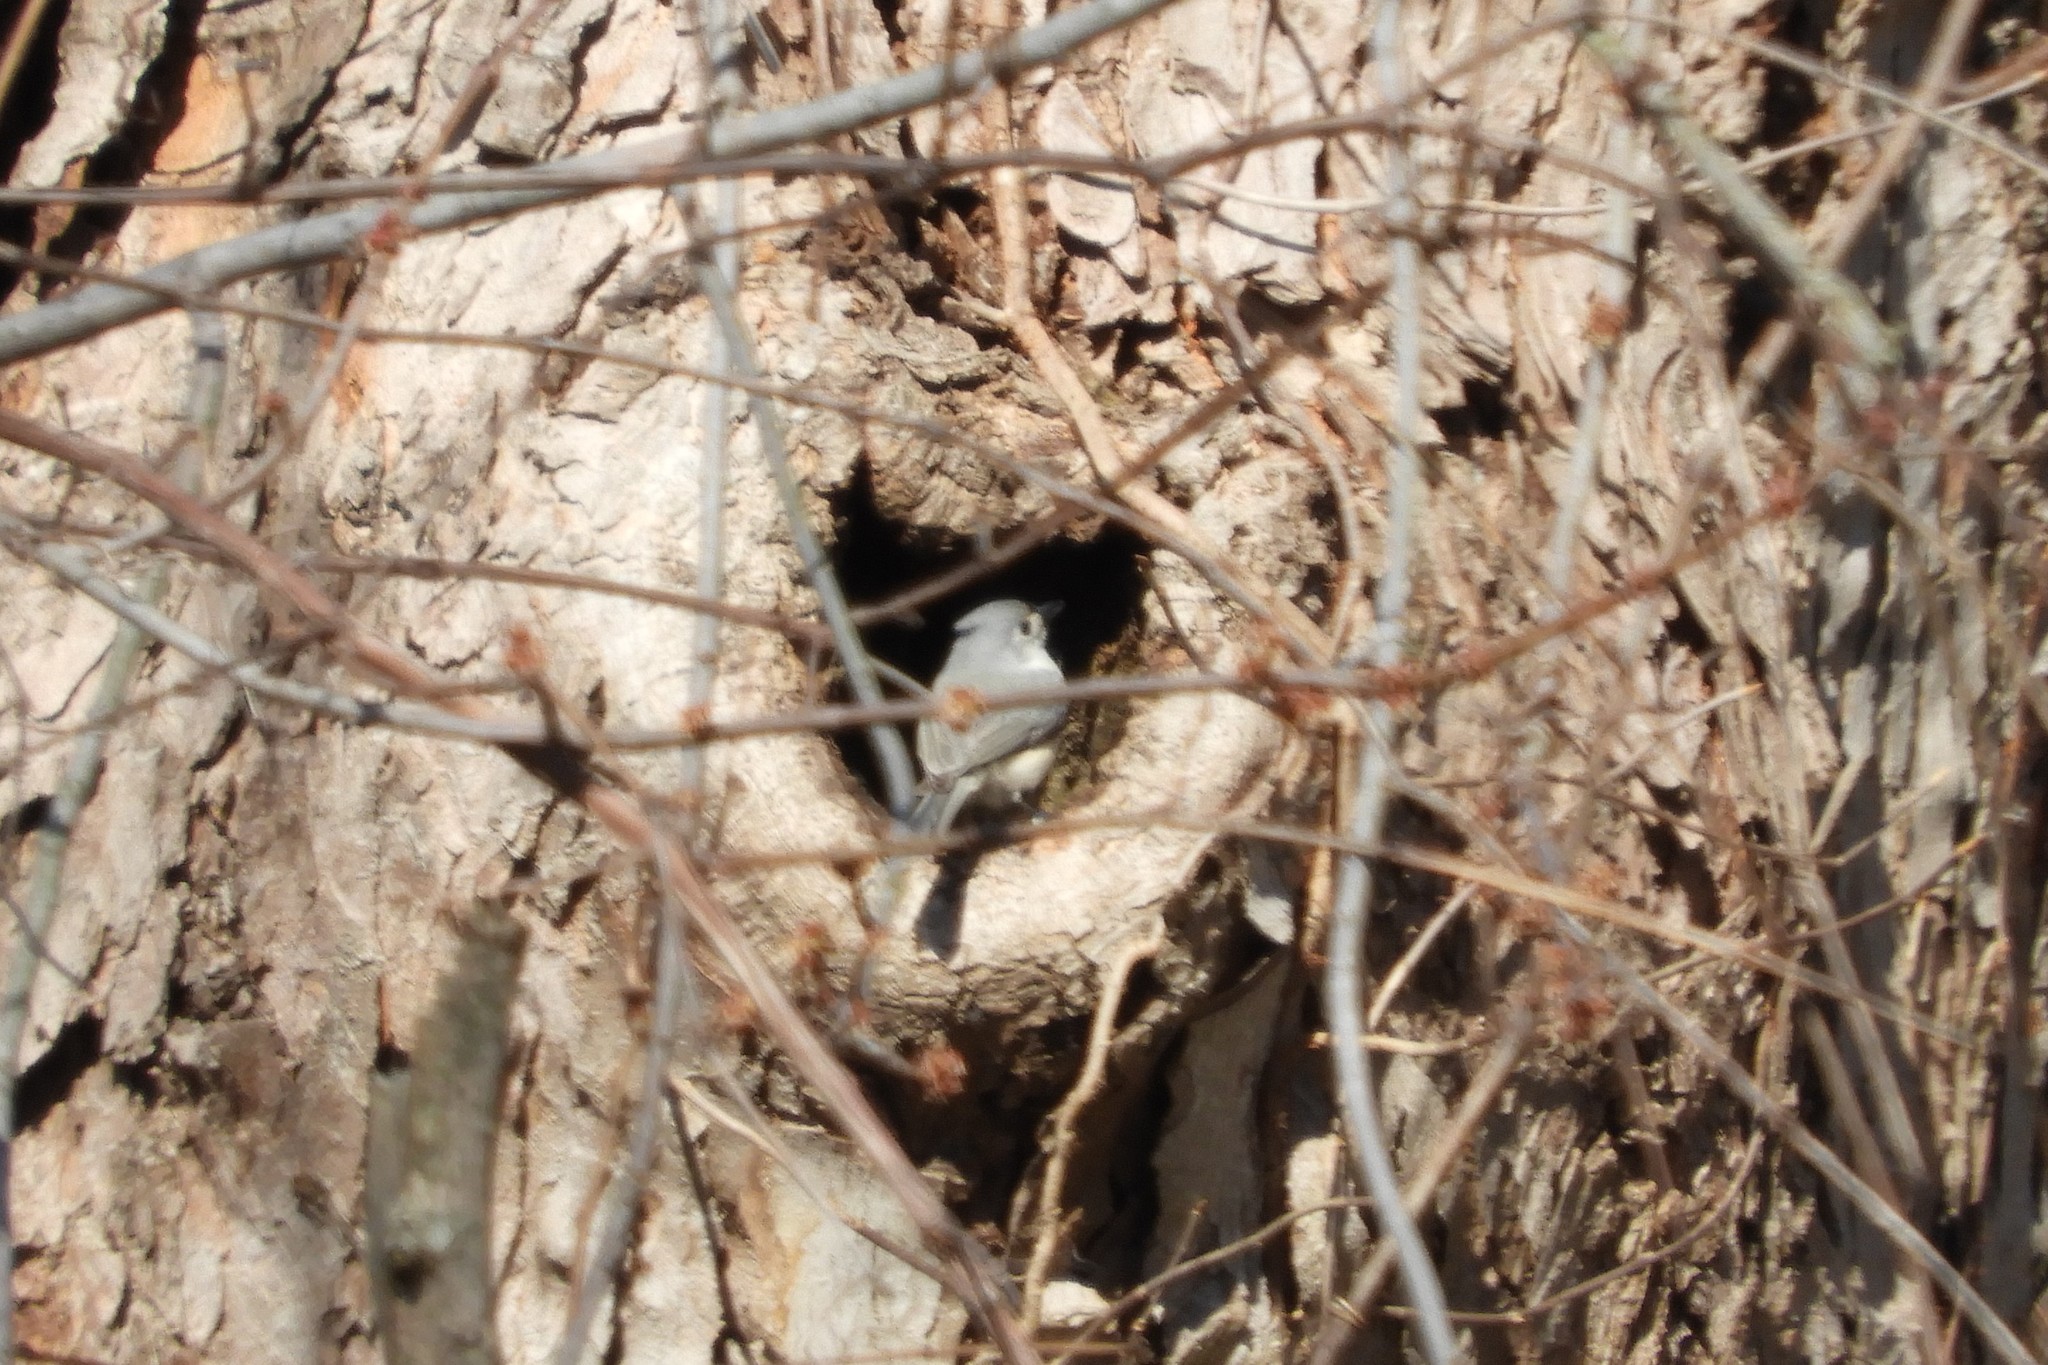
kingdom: Animalia
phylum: Chordata
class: Aves
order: Passeriformes
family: Paridae
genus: Baeolophus
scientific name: Baeolophus bicolor
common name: Tufted titmouse
